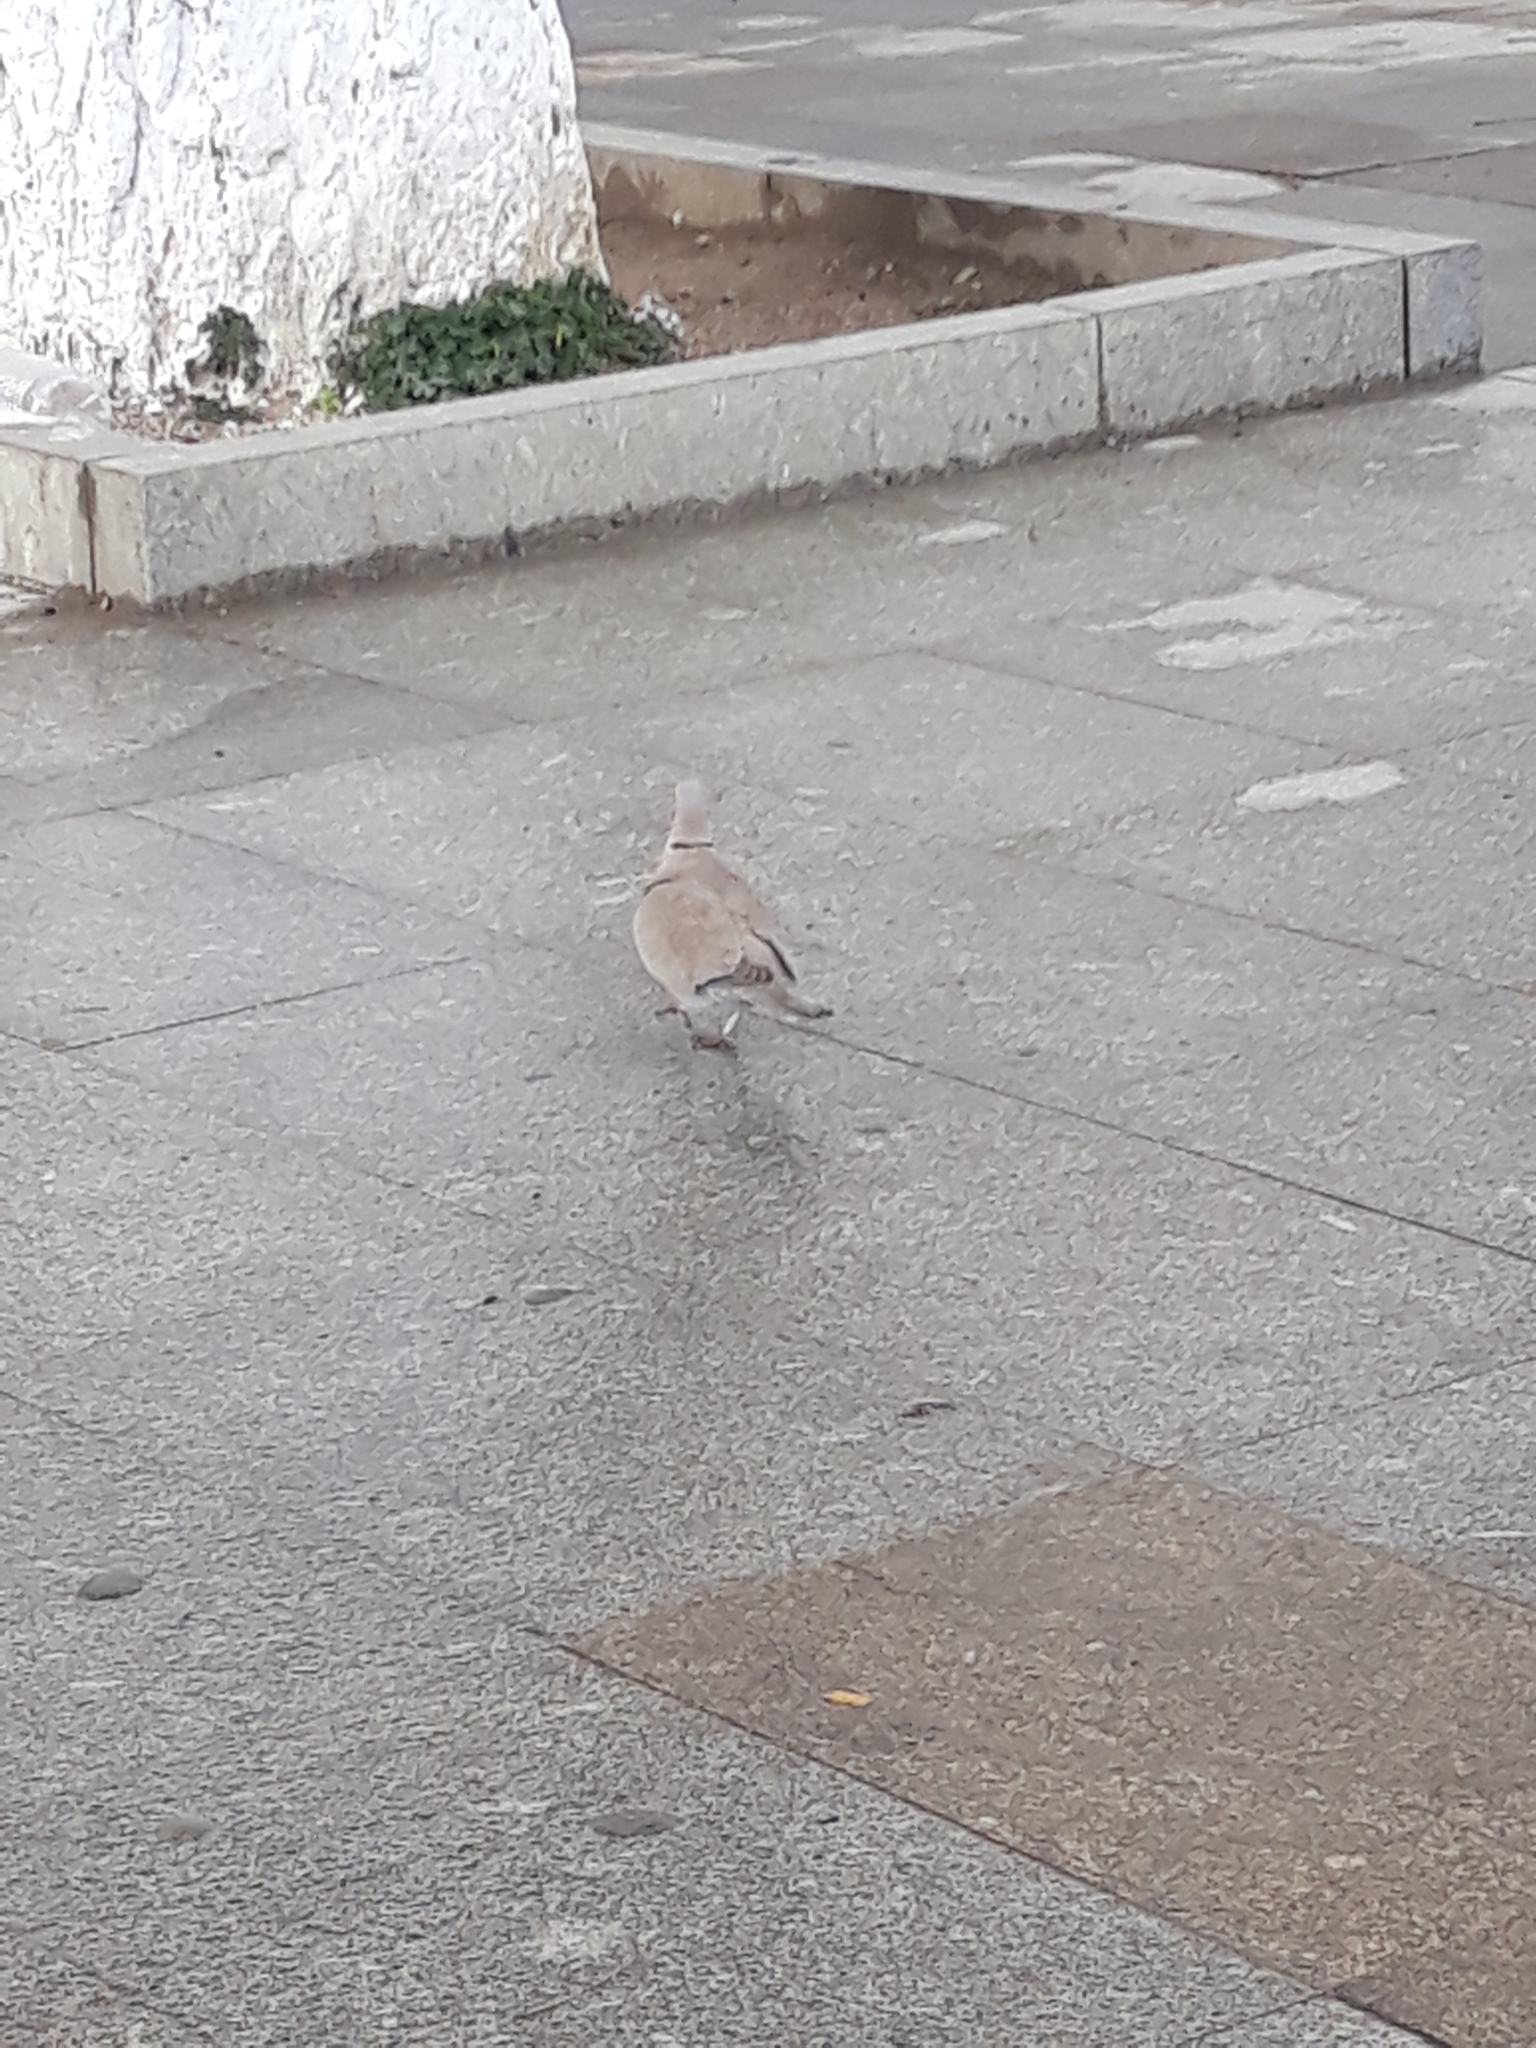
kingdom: Animalia
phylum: Chordata
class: Aves
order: Columbiformes
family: Columbidae
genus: Streptopelia
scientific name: Streptopelia decaocto
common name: Eurasian collared dove
